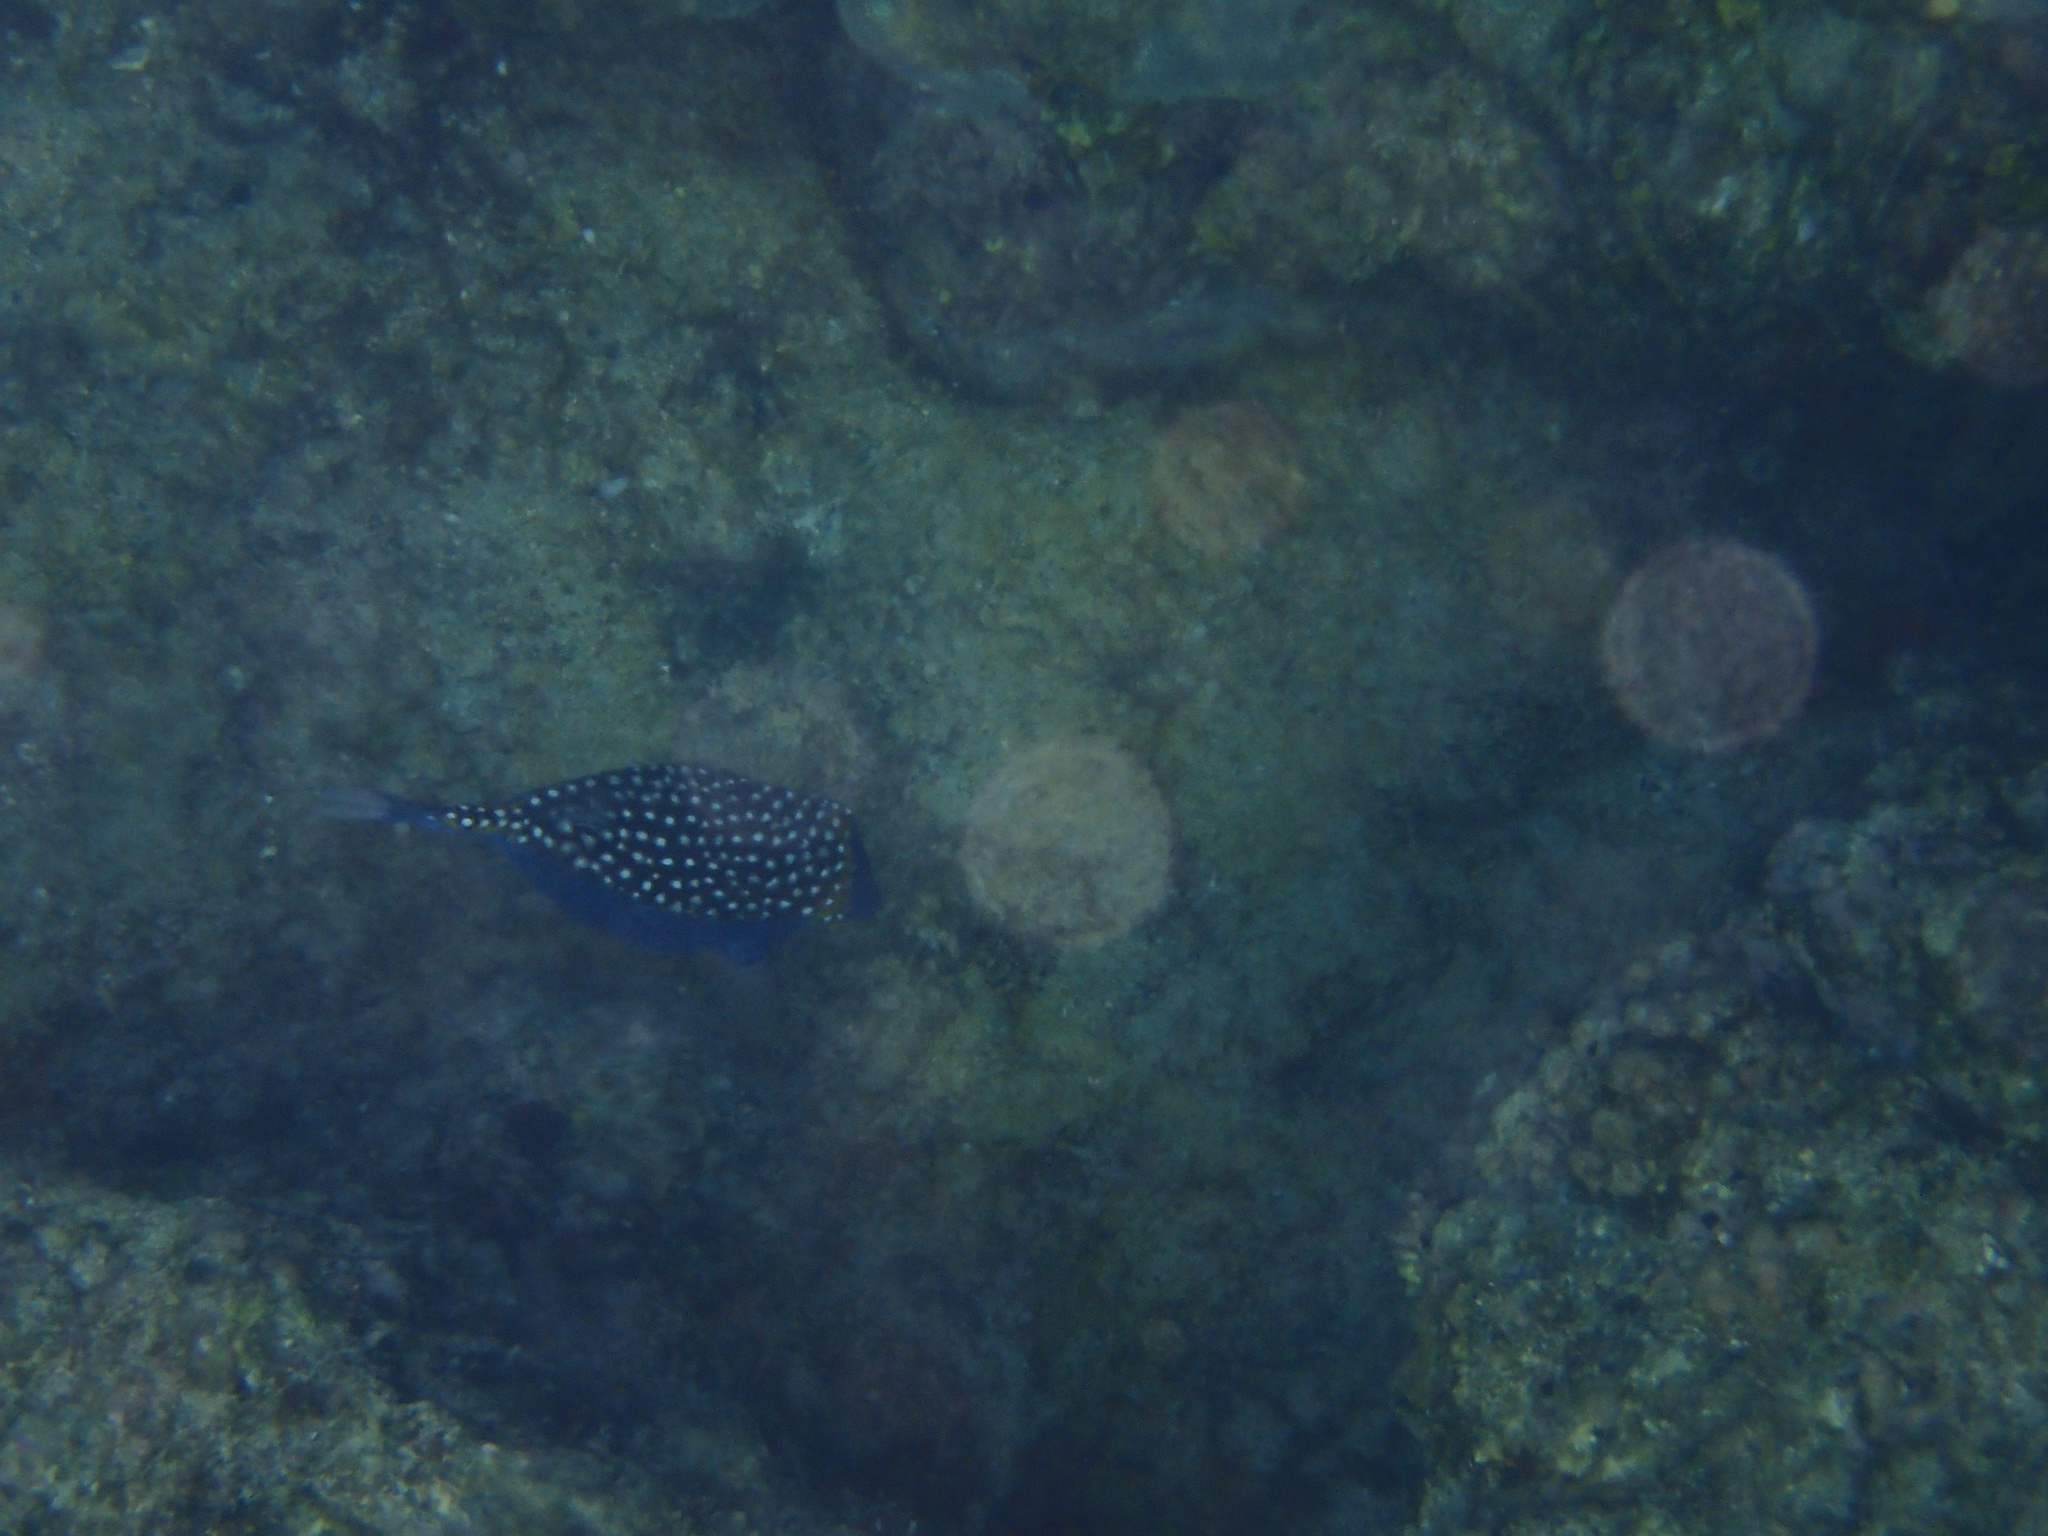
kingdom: Animalia
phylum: Chordata
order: Tetraodontiformes
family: Ostraciidae
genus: Ostracion
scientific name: Ostracion meleagris
